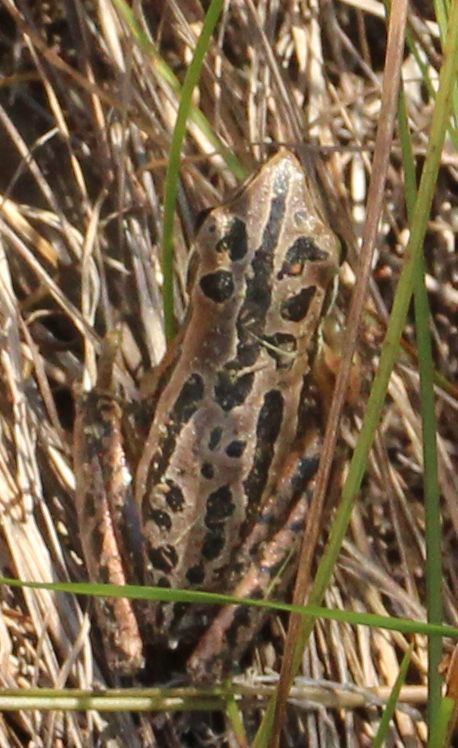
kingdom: Animalia
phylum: Chordata
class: Amphibia
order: Anura
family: Pelodryadidae
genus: Litoria
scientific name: Litoria adelaidensis
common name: Slender tree frog
